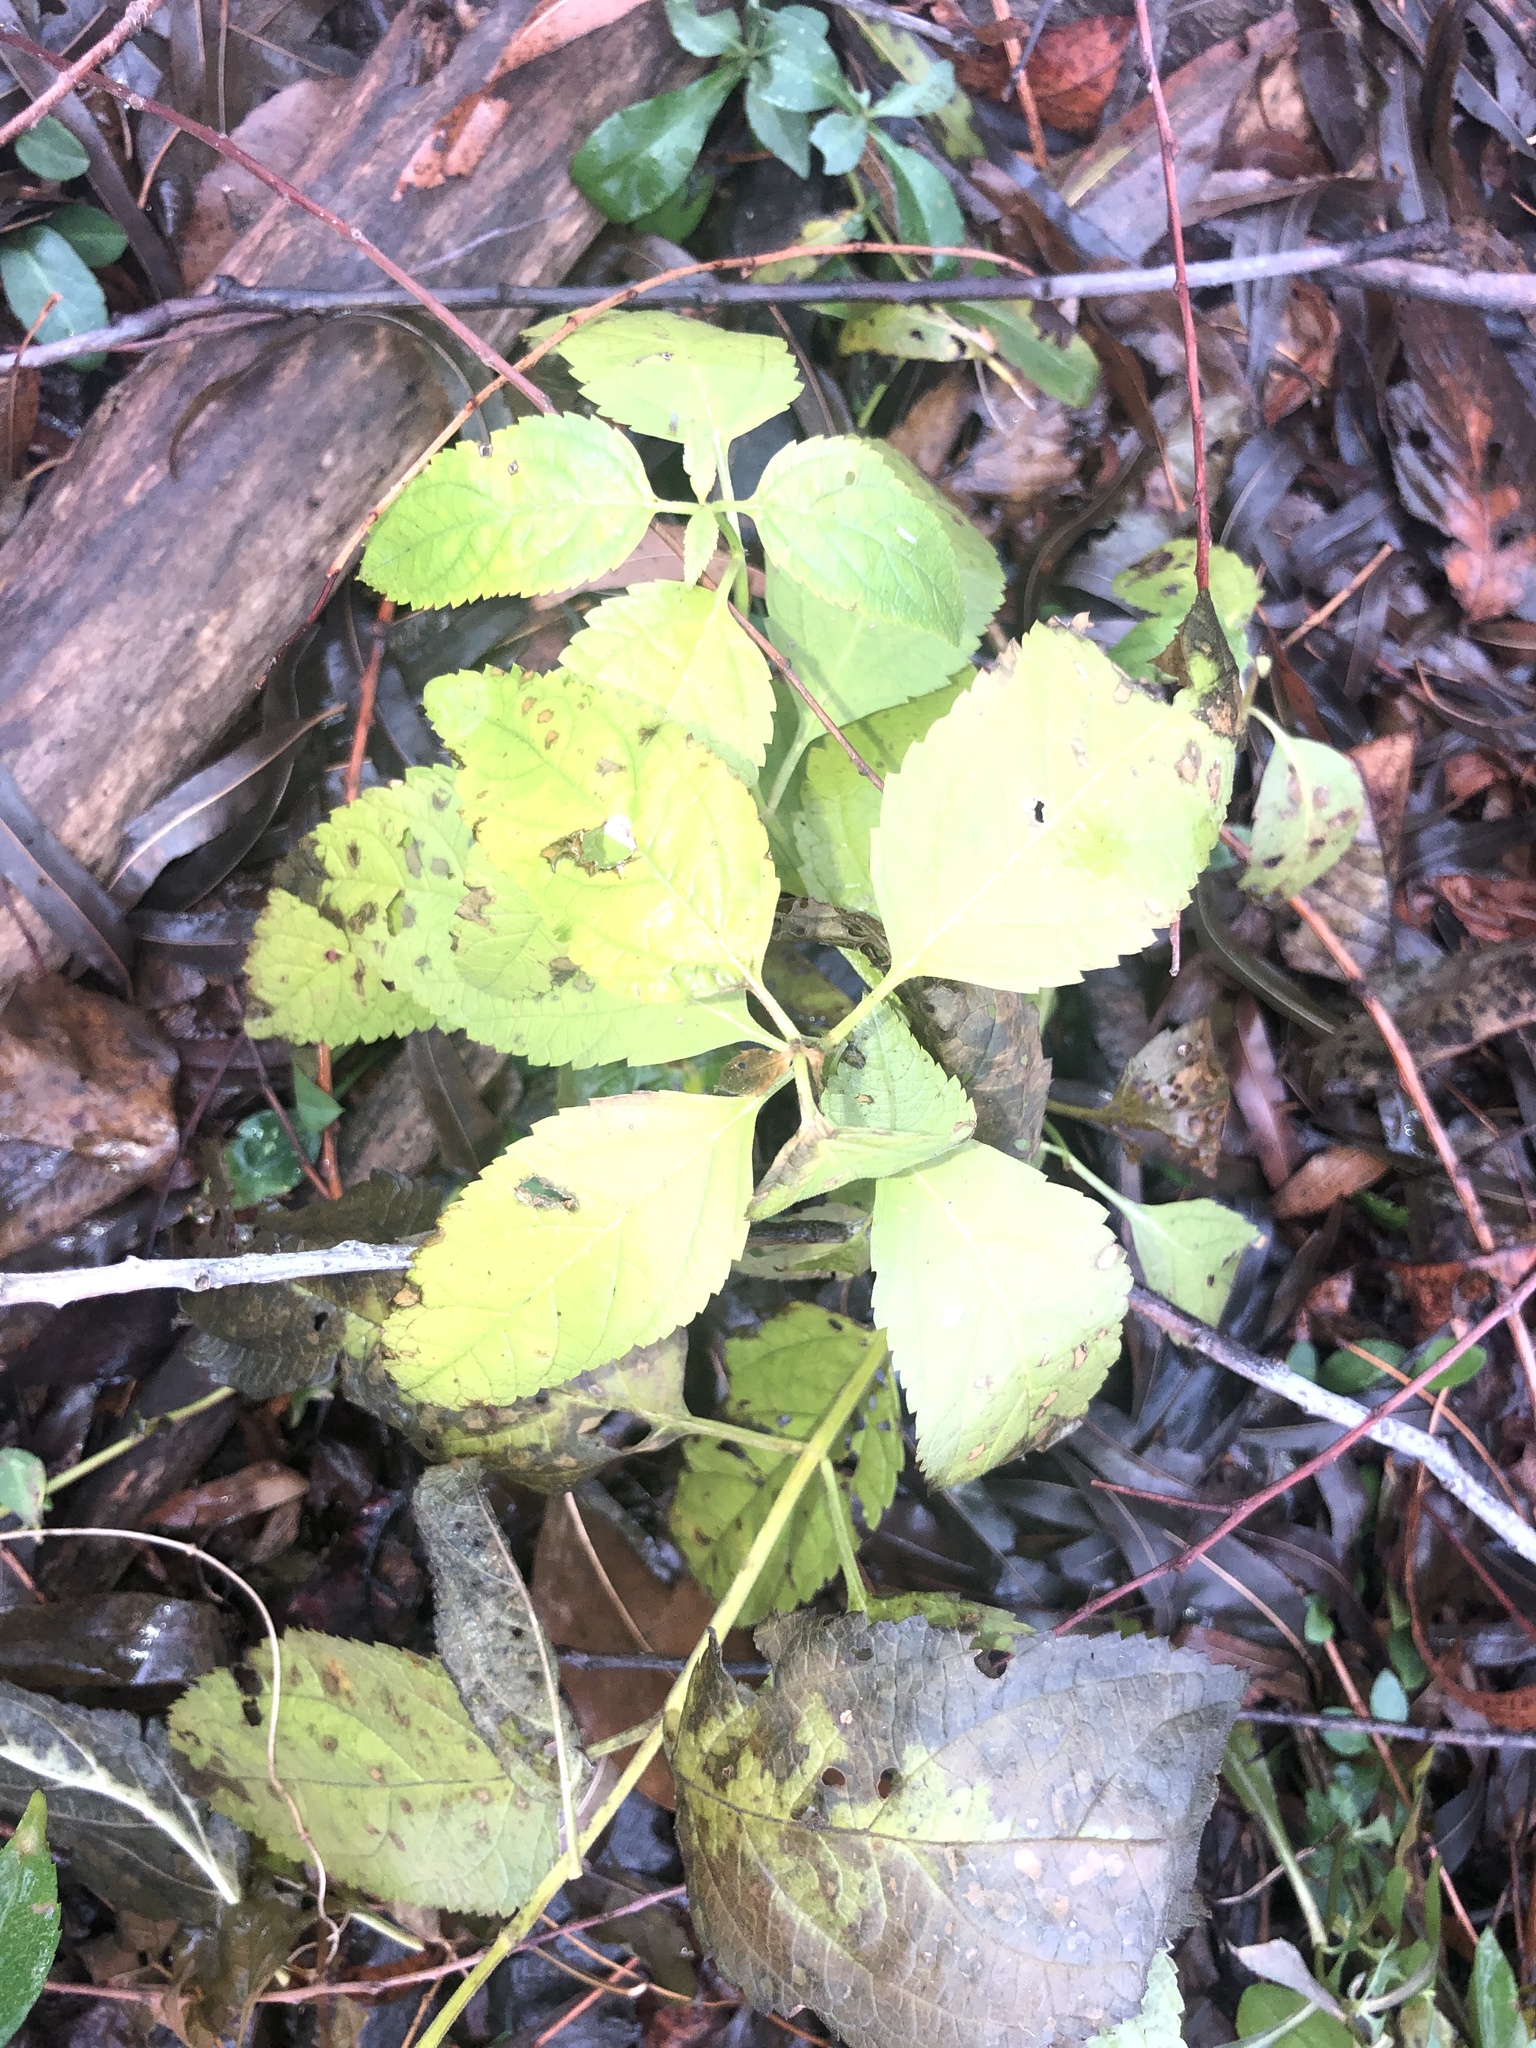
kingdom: Plantae
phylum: Tracheophyta
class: Magnoliopsida
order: Rosales
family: Urticaceae
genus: Boehmeria
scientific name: Boehmeria cylindrica
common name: Bog-hemp
